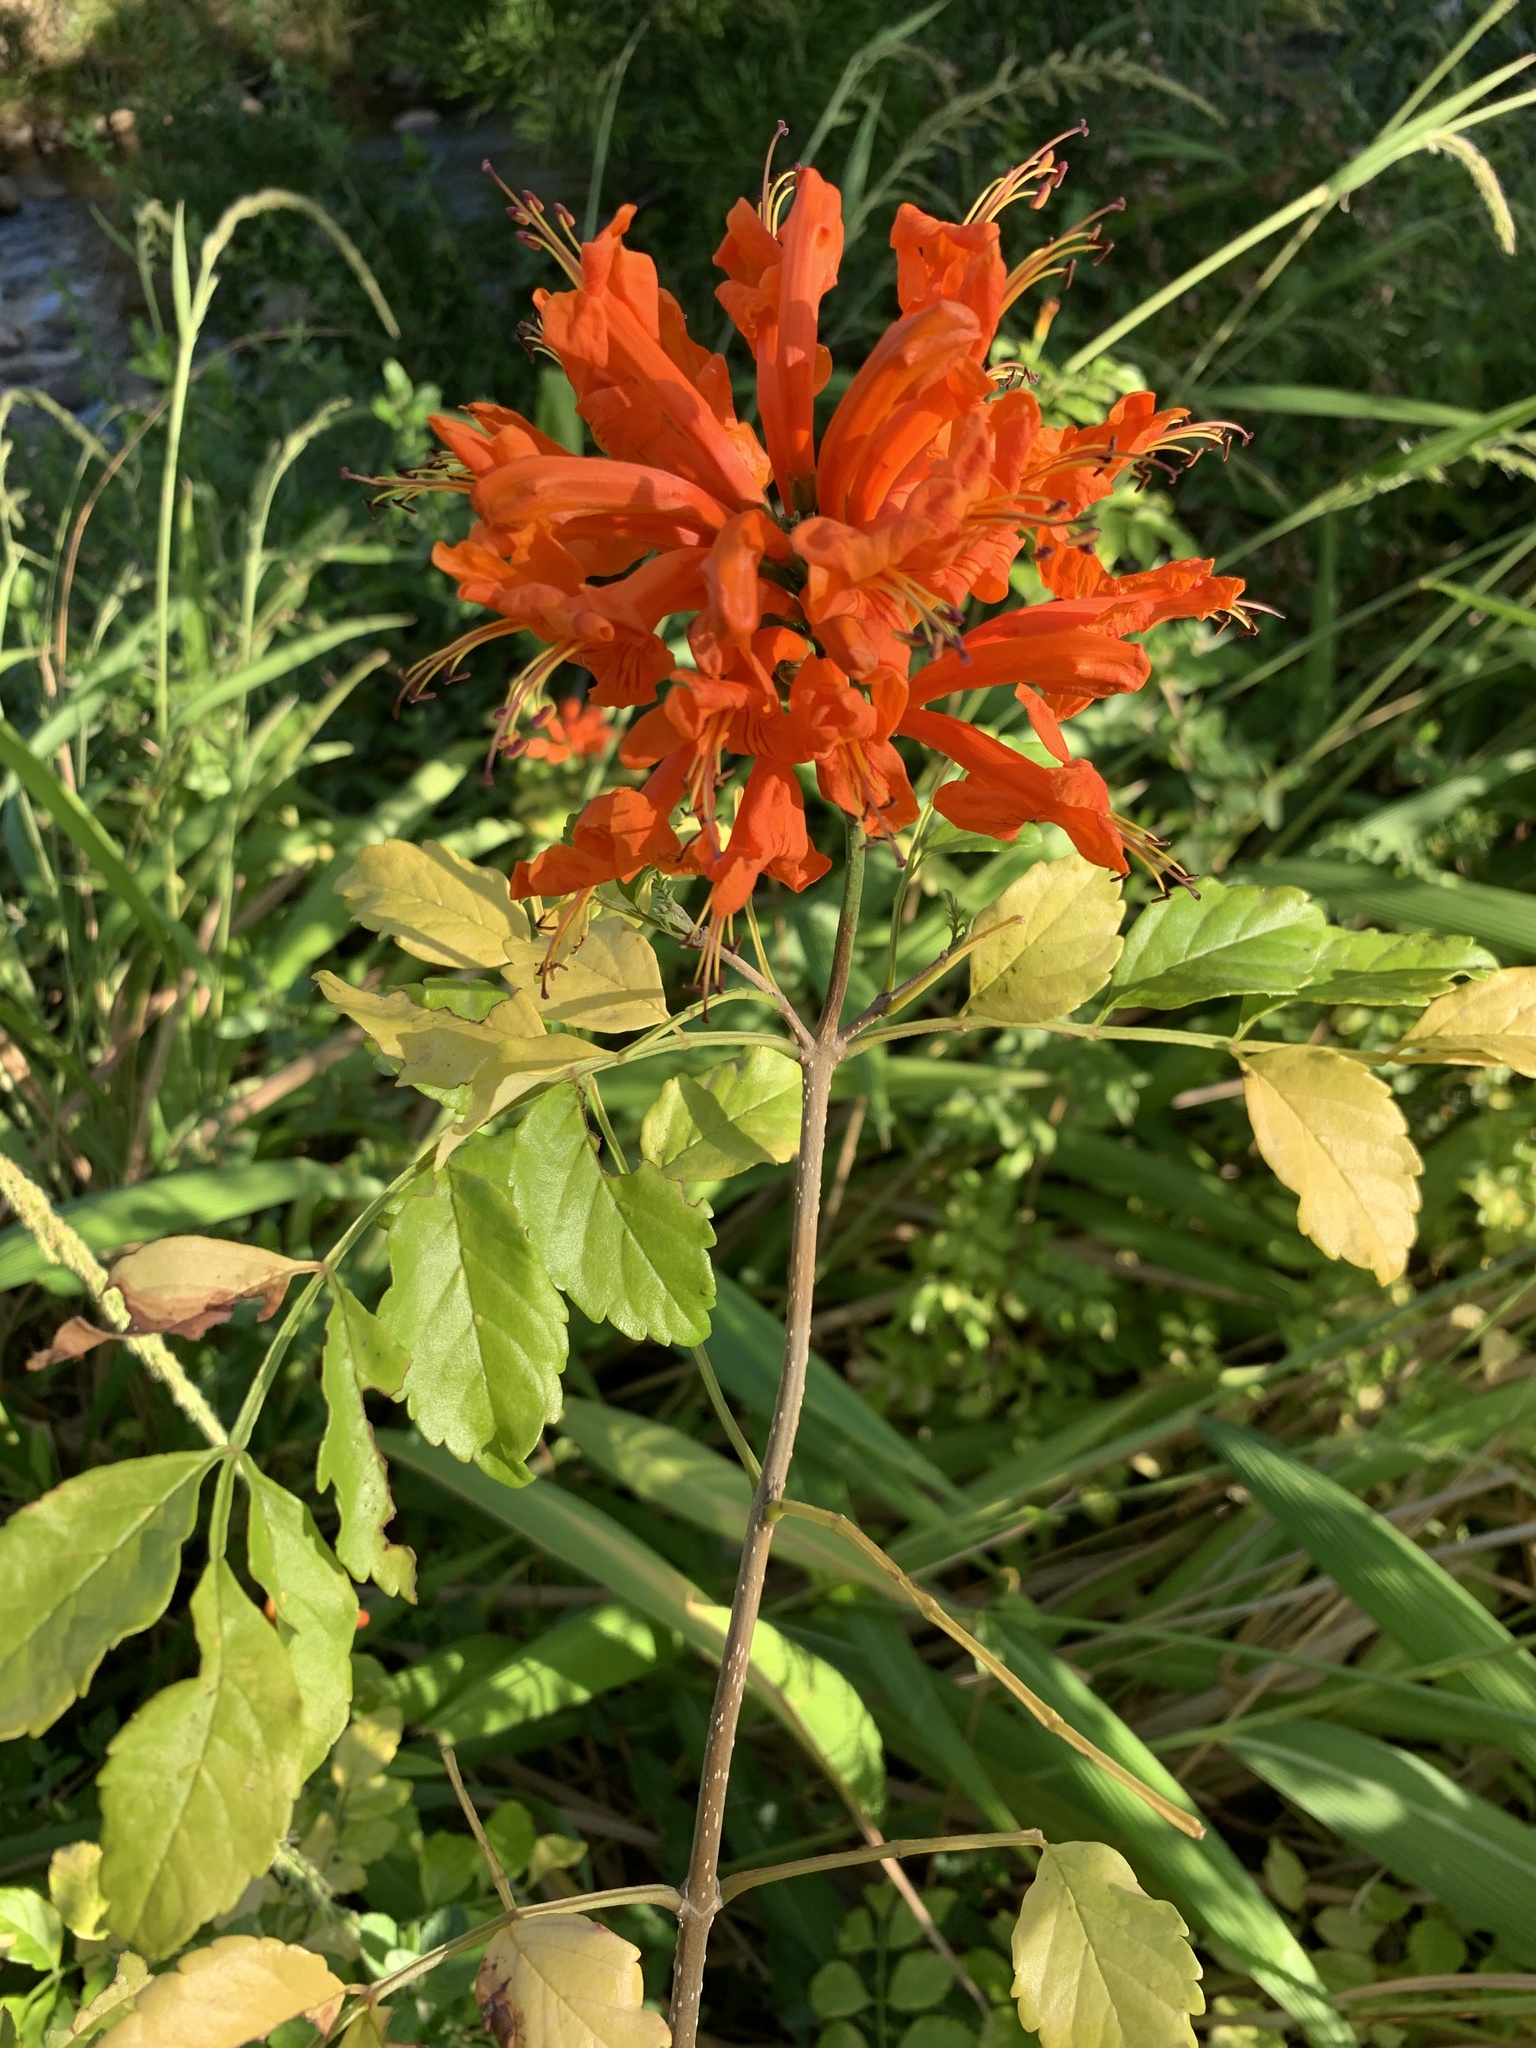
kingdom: Plantae
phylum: Tracheophyta
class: Magnoliopsida
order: Lamiales
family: Bignoniaceae
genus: Tecomaria
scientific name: Tecomaria capensis
